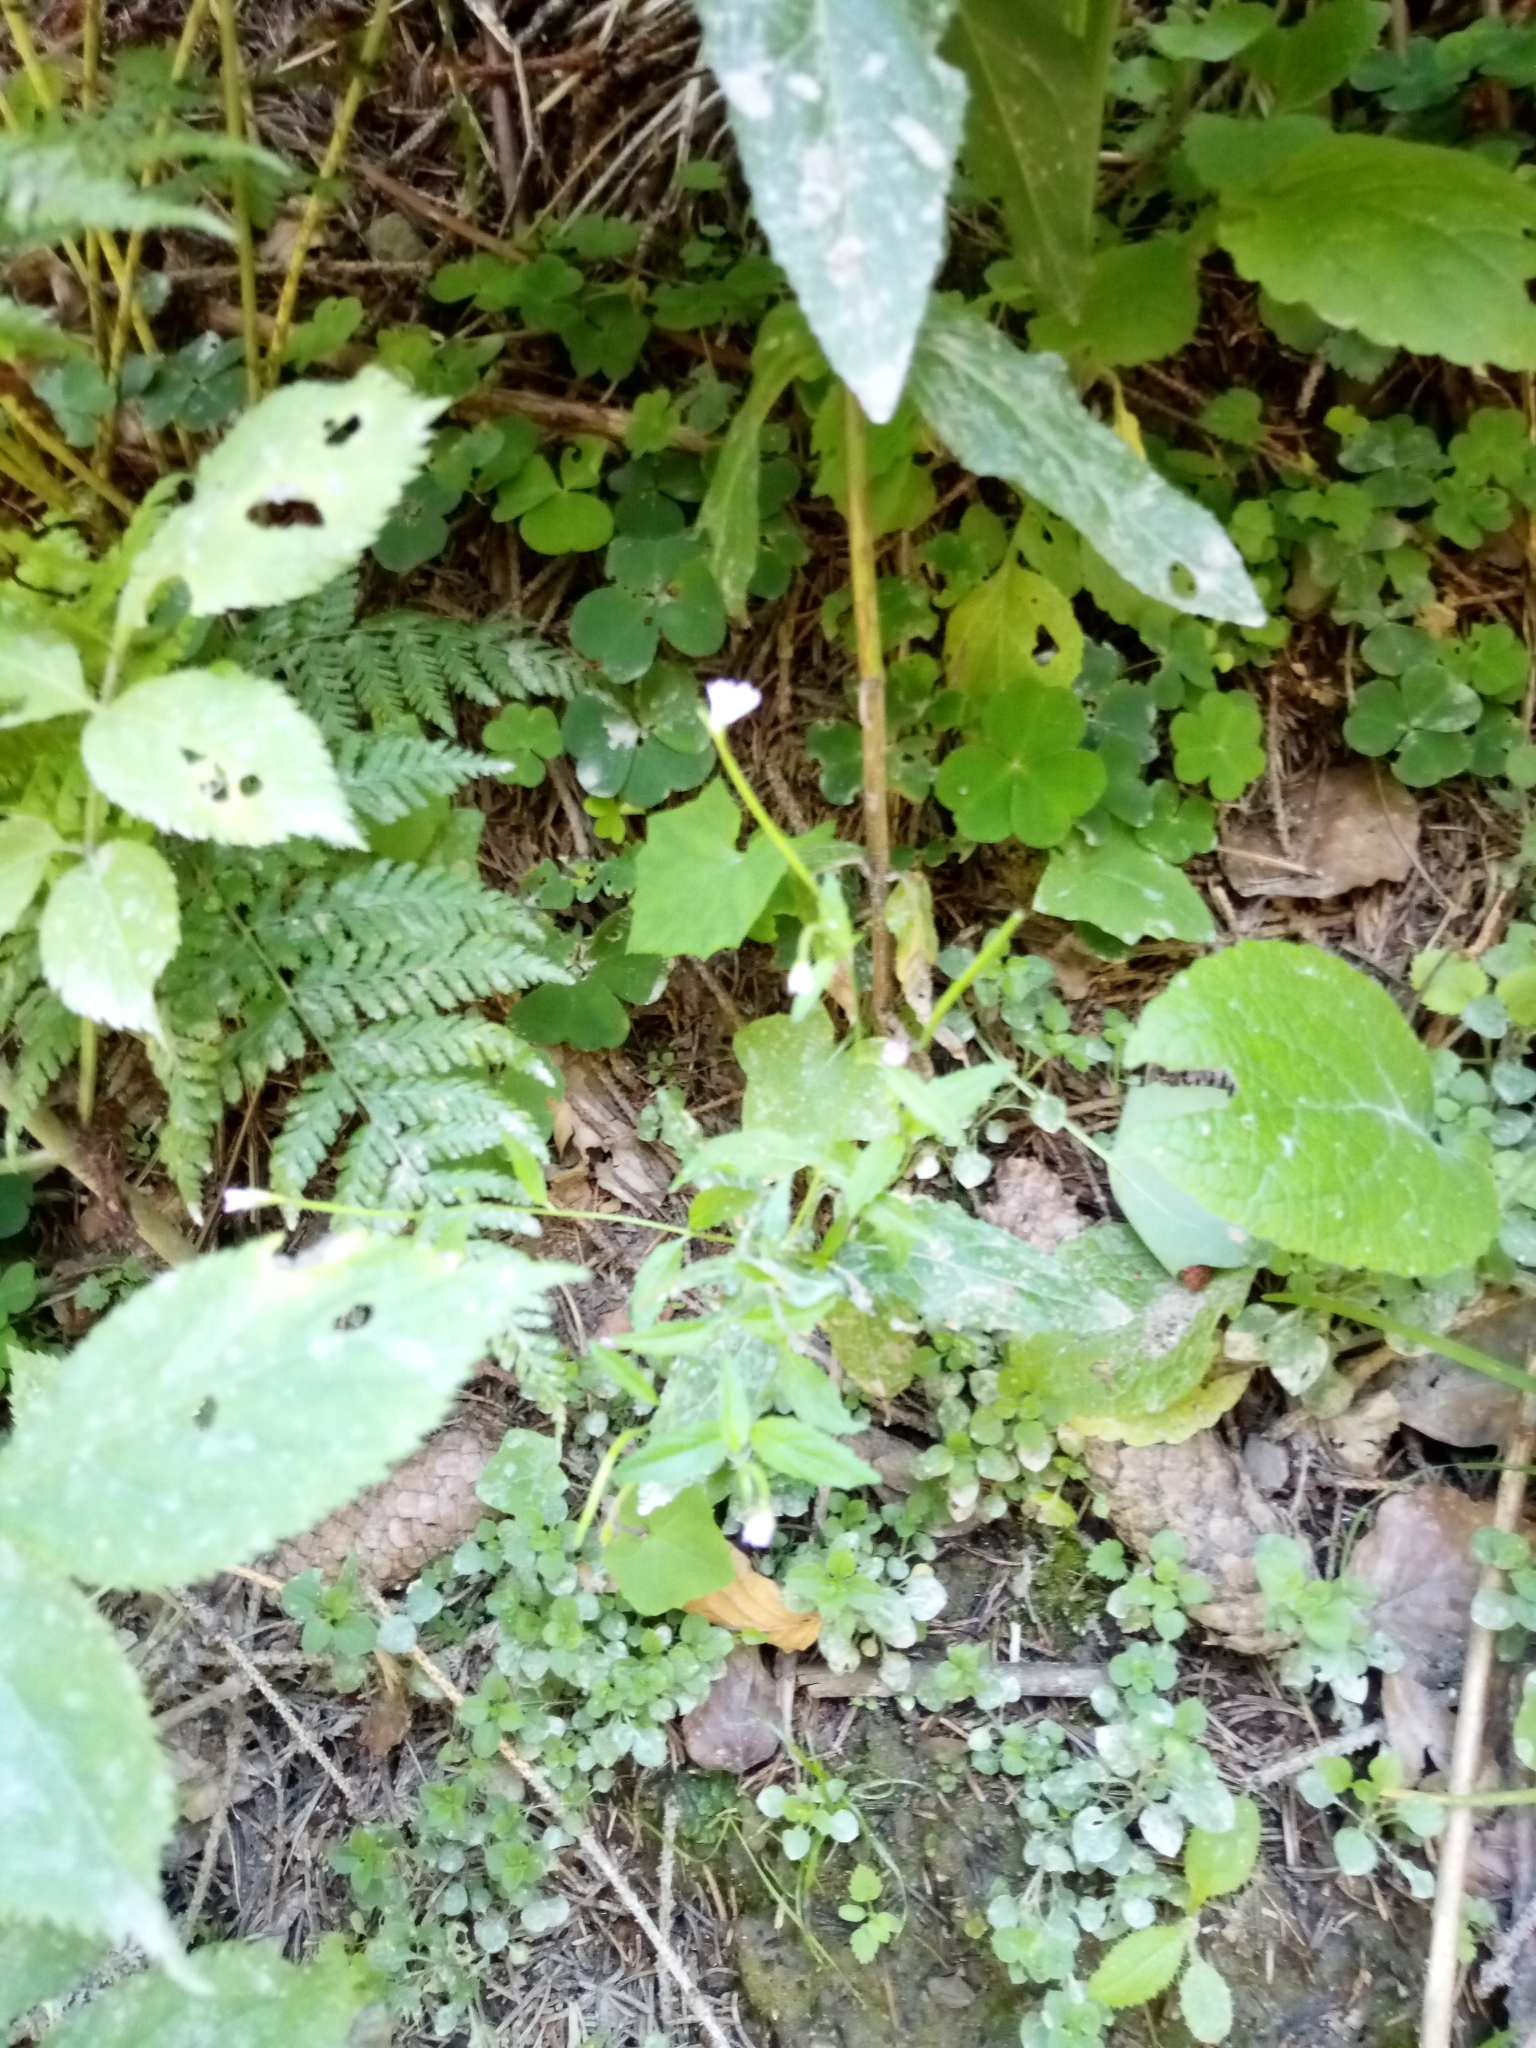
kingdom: Plantae
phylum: Tracheophyta
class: Magnoliopsida
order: Myrtales
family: Onagraceae
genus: Epilobium
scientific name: Epilobium montanum
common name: Broad-leaved willowherb
